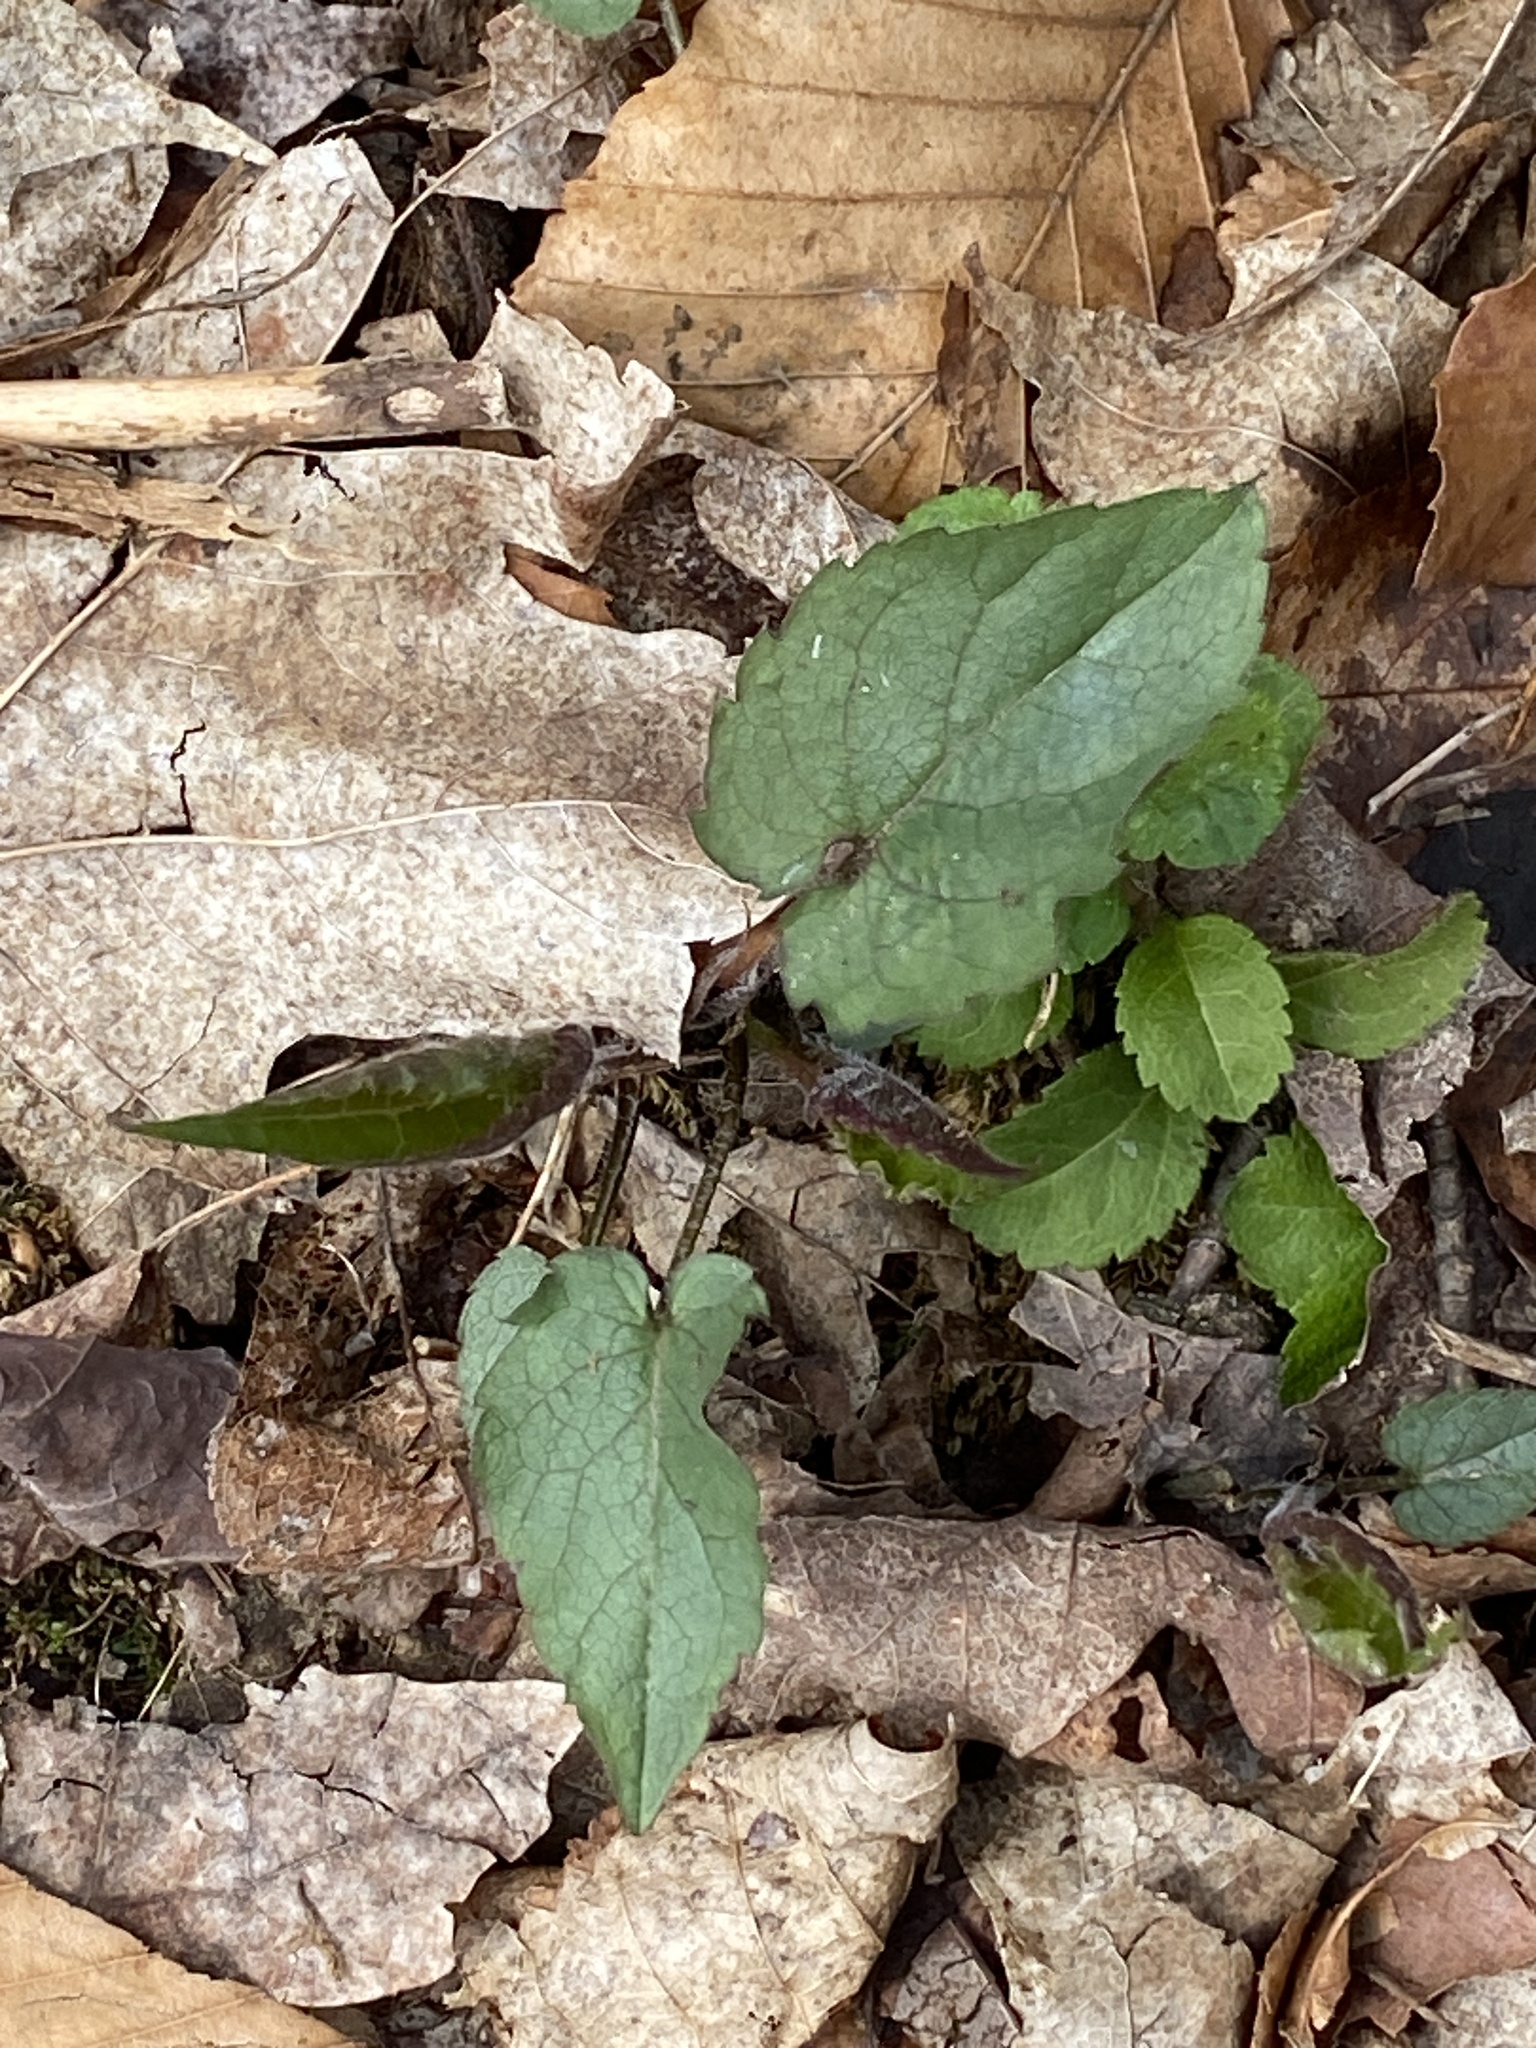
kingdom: Plantae
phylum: Tracheophyta
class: Magnoliopsida
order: Asterales
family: Asteraceae
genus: Eurybia
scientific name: Eurybia divaricata
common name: White wood aster
